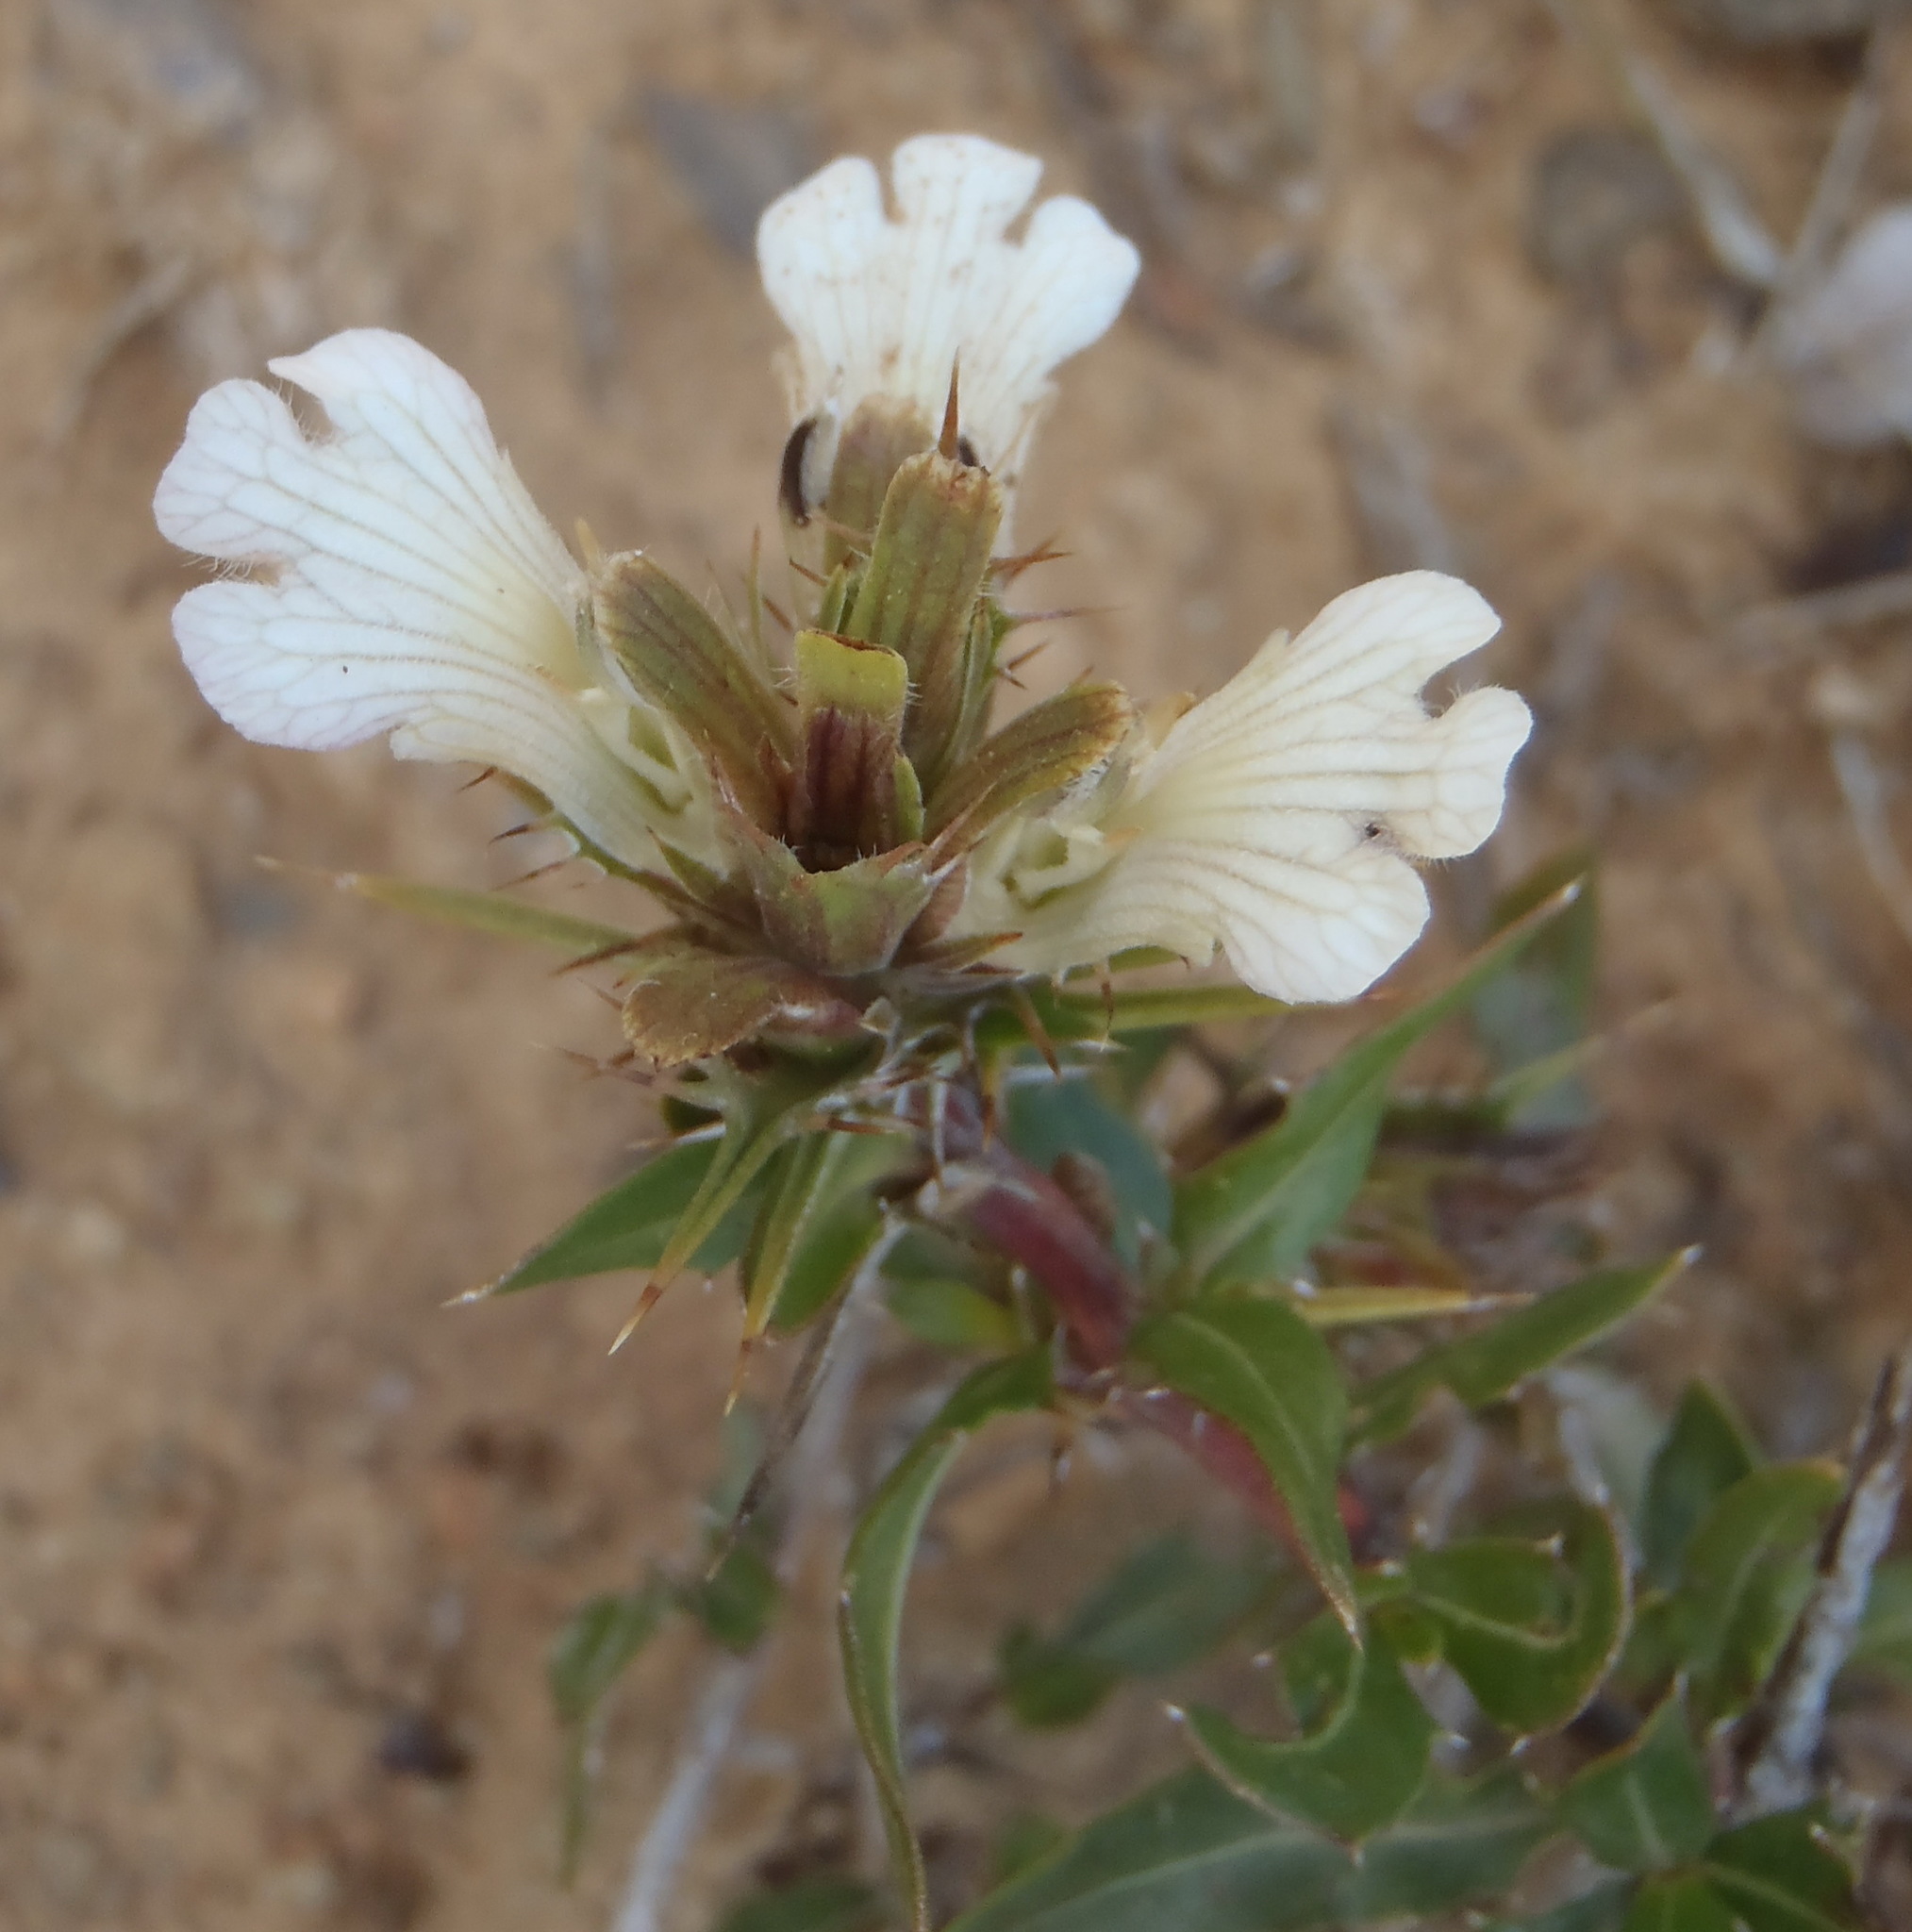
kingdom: Plantae
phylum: Tracheophyta
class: Magnoliopsida
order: Lamiales
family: Acanthaceae
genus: Blepharis
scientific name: Blepharis ilicina
